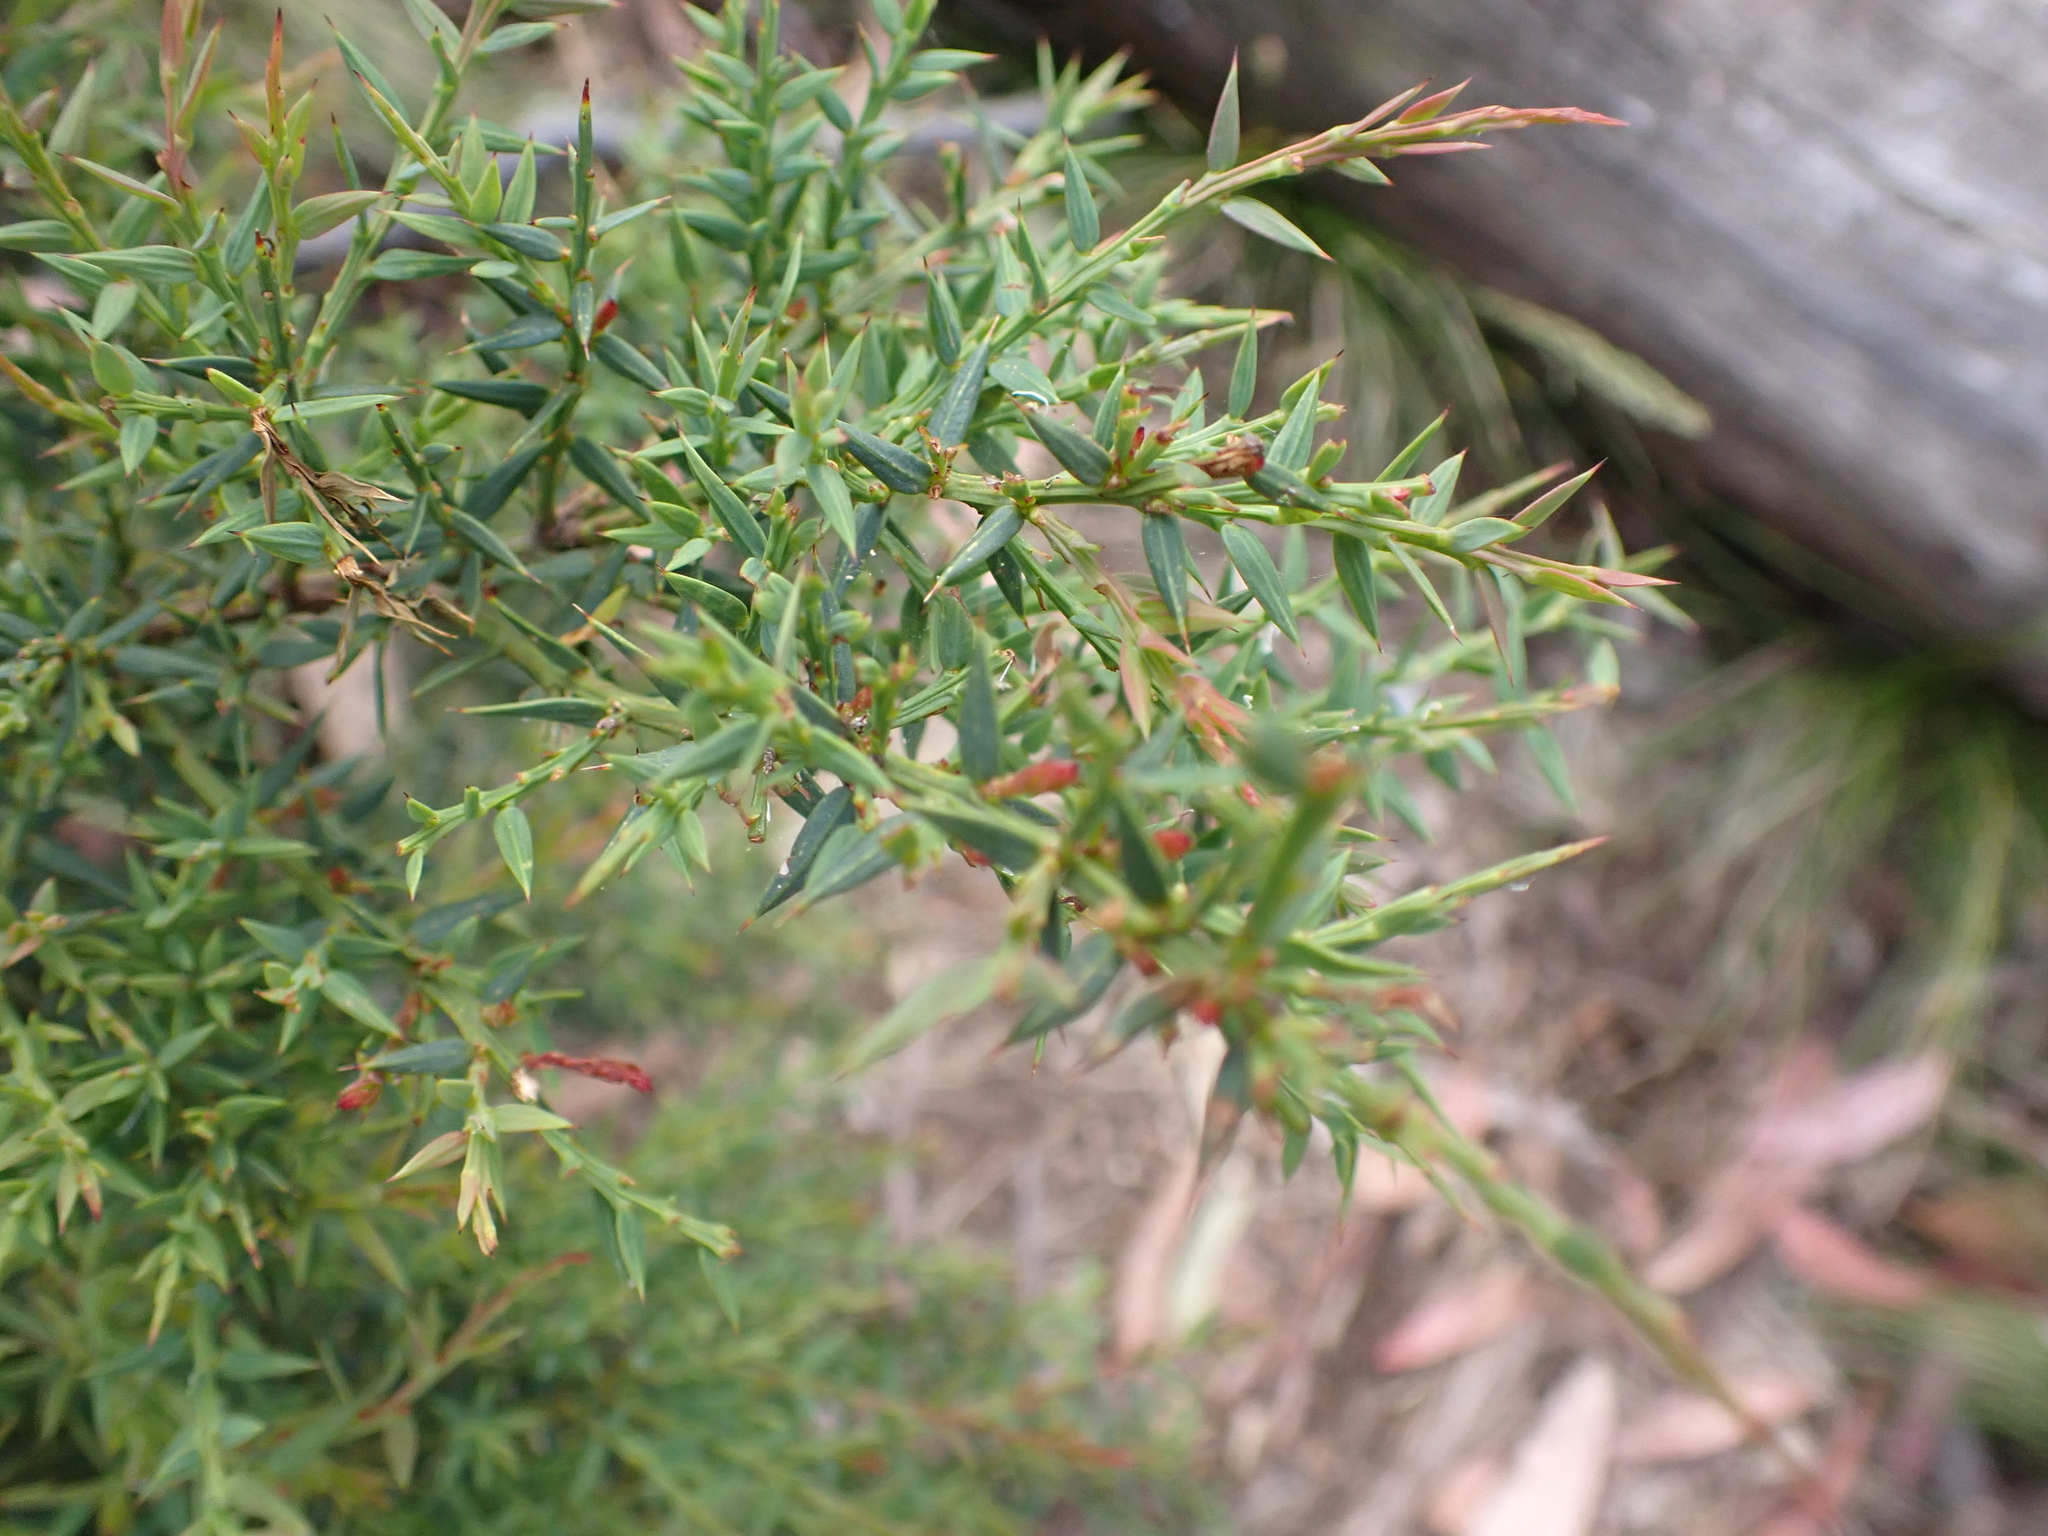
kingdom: Plantae
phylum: Tracheophyta
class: Magnoliopsida
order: Fabales
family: Fabaceae
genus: Daviesia
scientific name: Daviesia ulicifolia
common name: Gorse bitter-pea
